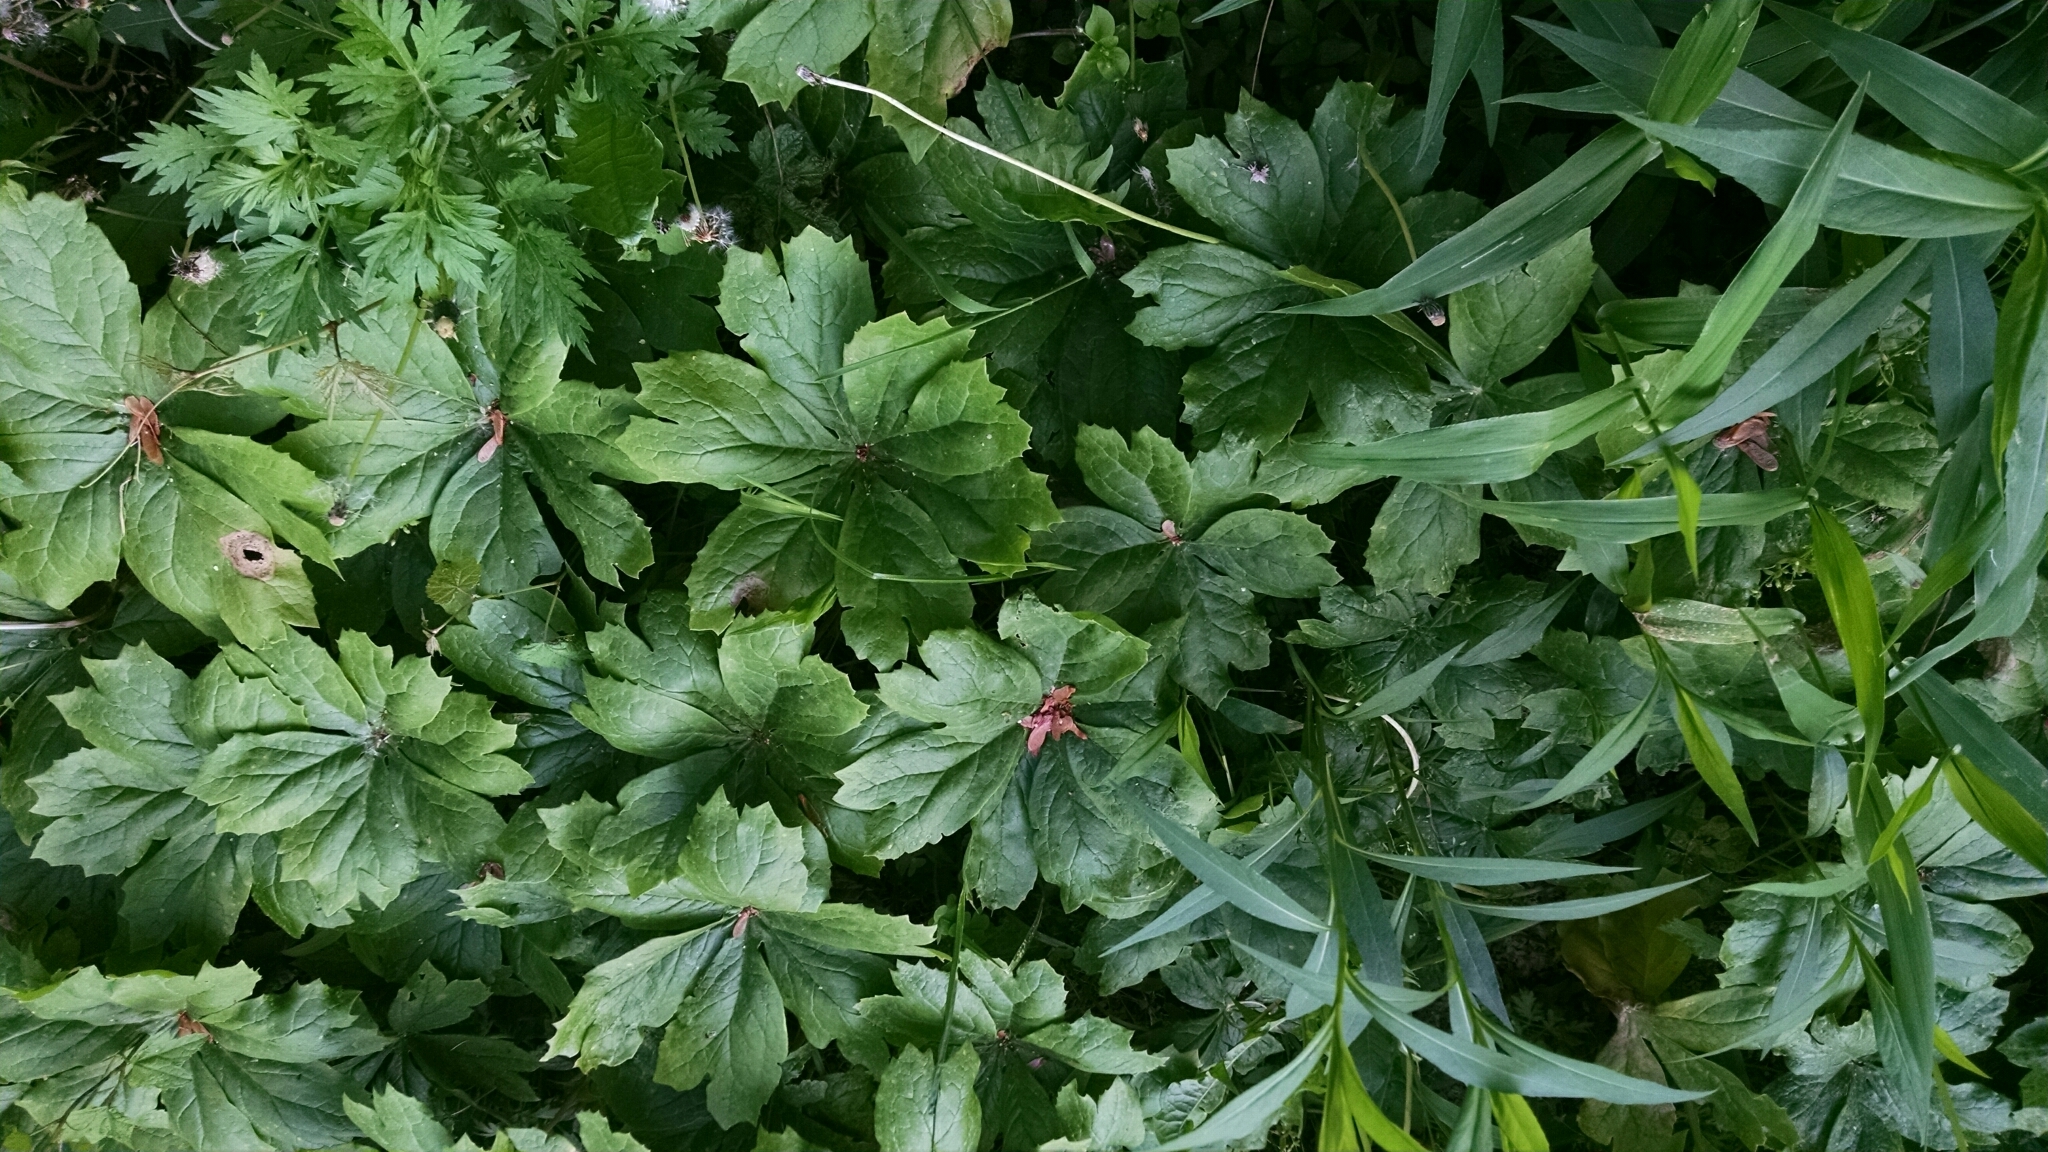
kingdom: Plantae
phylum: Tracheophyta
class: Magnoliopsida
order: Ranunculales
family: Berberidaceae
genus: Podophyllum
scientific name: Podophyllum peltatum
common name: Wild mandrake
